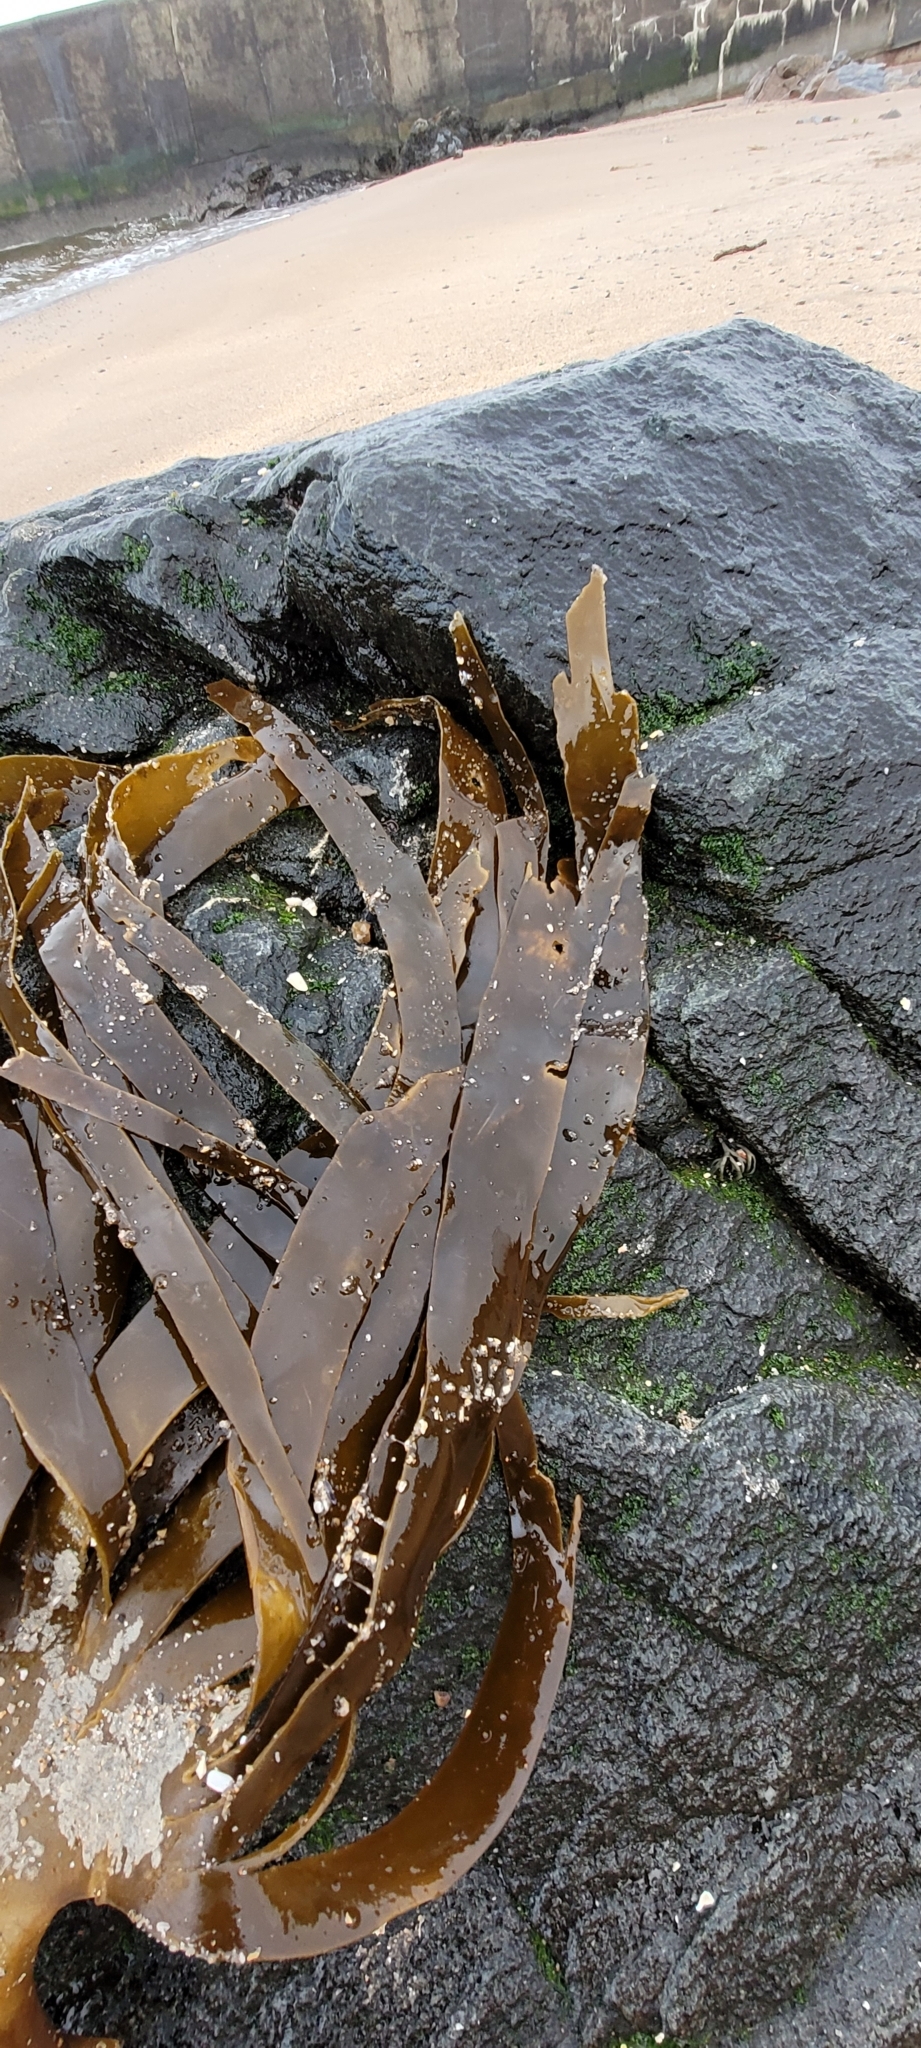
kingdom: Chromista
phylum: Ochrophyta
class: Phaeophyceae
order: Laminariales
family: Laminariaceae
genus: Laminaria
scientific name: Laminaria digitata
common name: Oarweed
